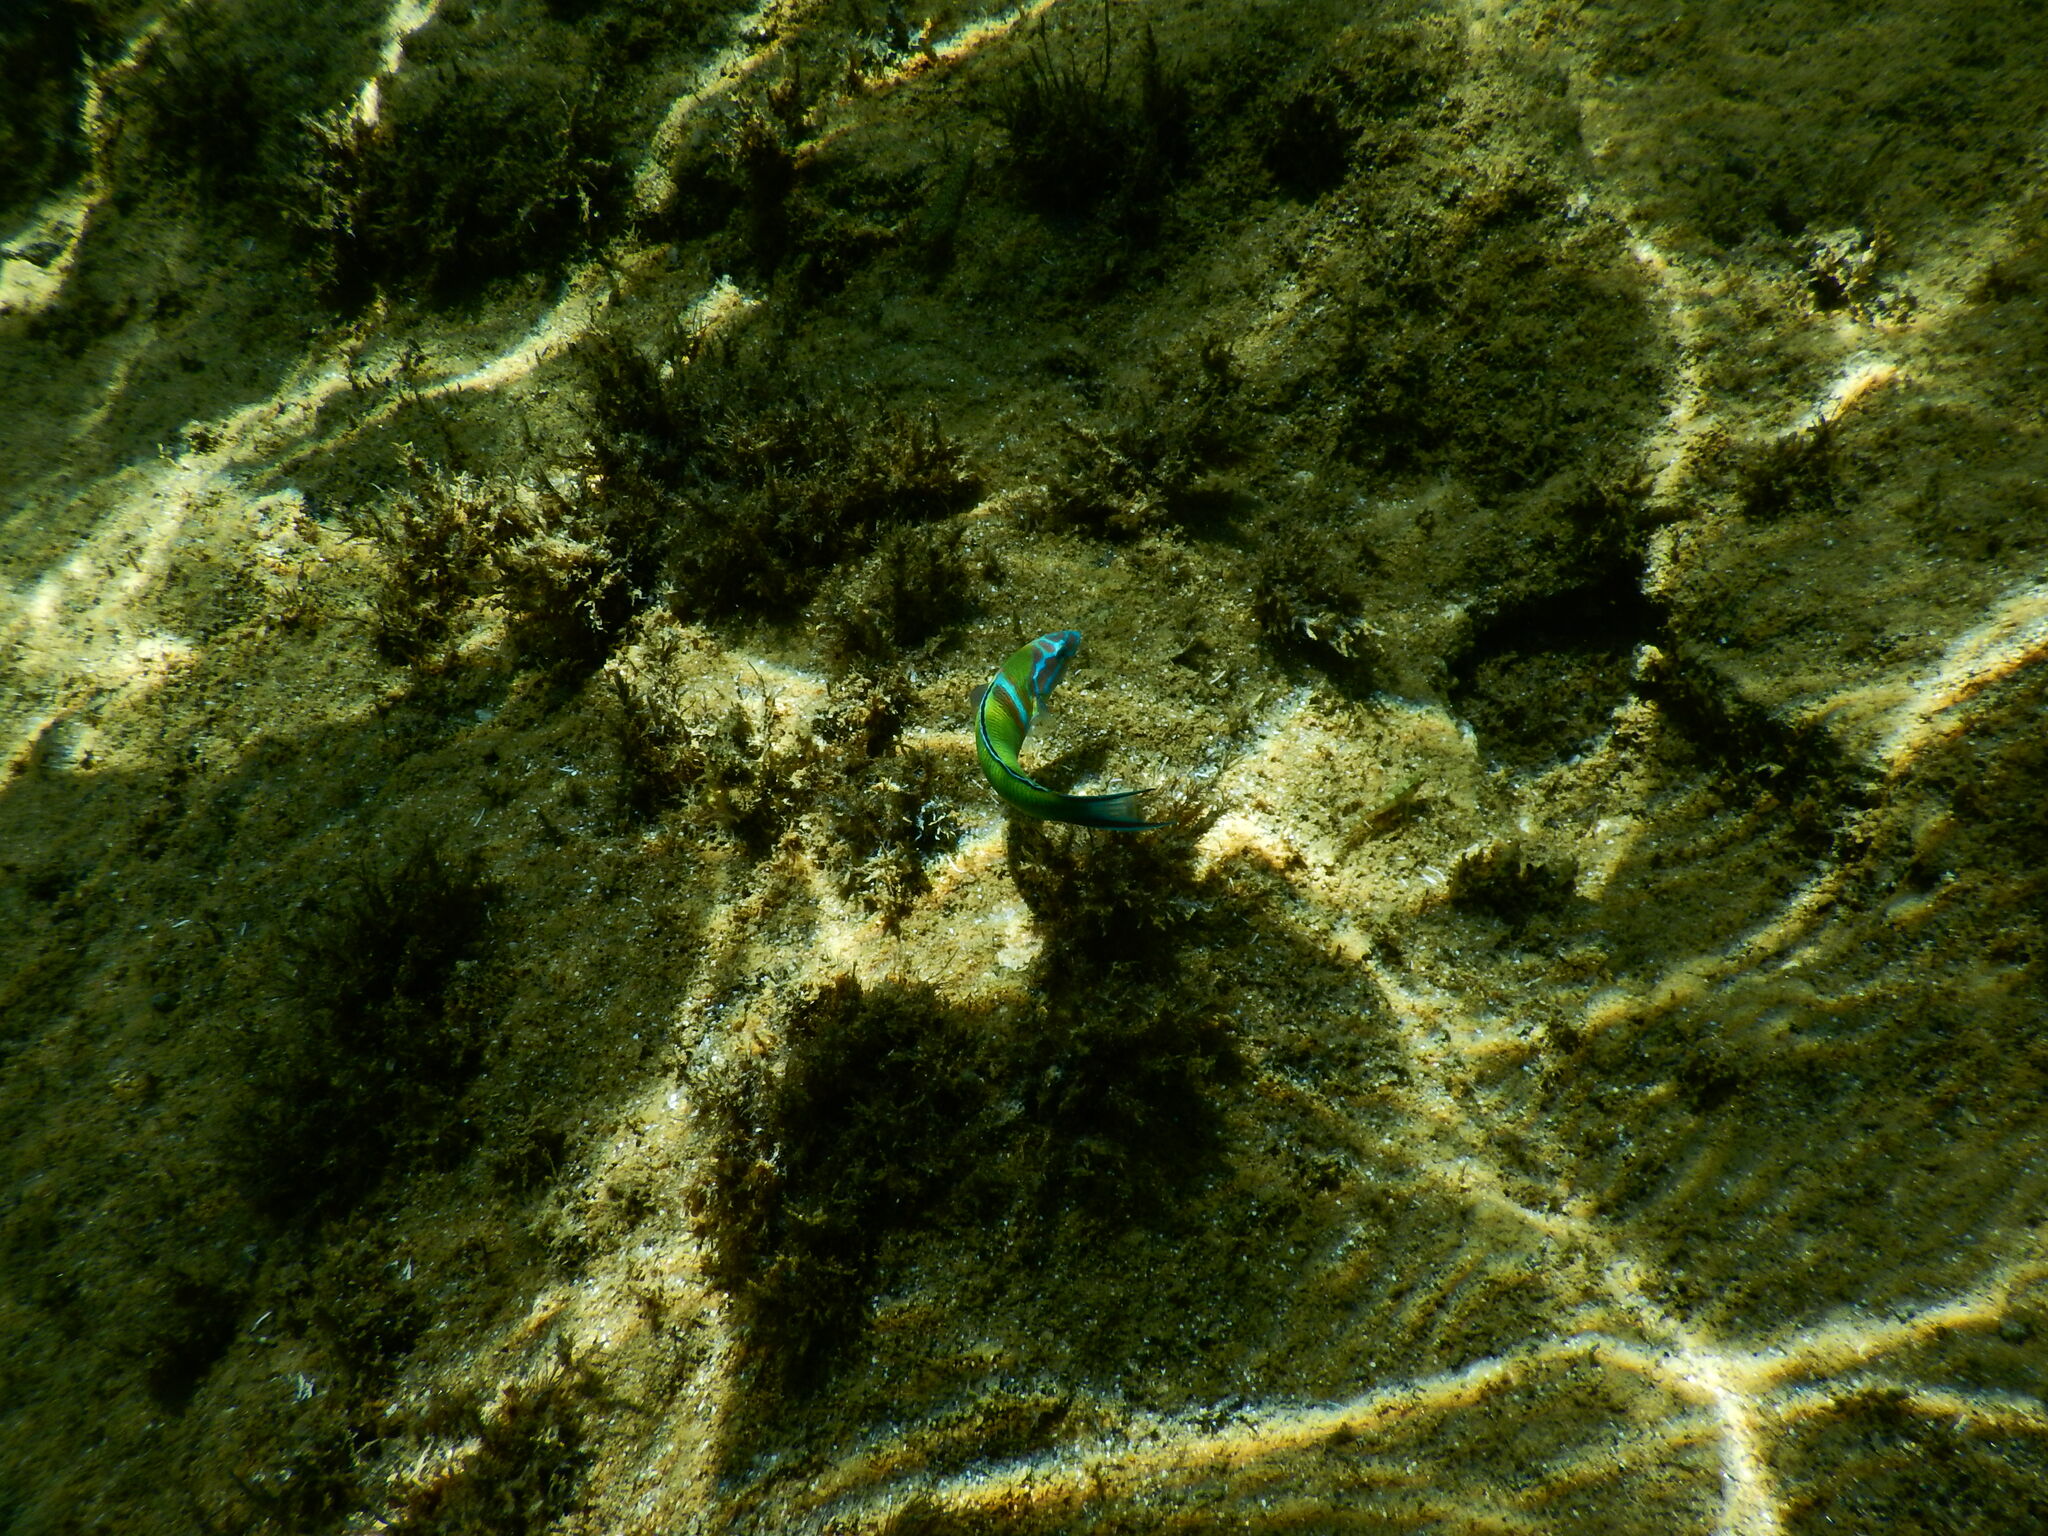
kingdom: Animalia
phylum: Chordata
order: Perciformes
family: Labridae
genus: Thalassoma
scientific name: Thalassoma pavo
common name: Ornate wrasse
